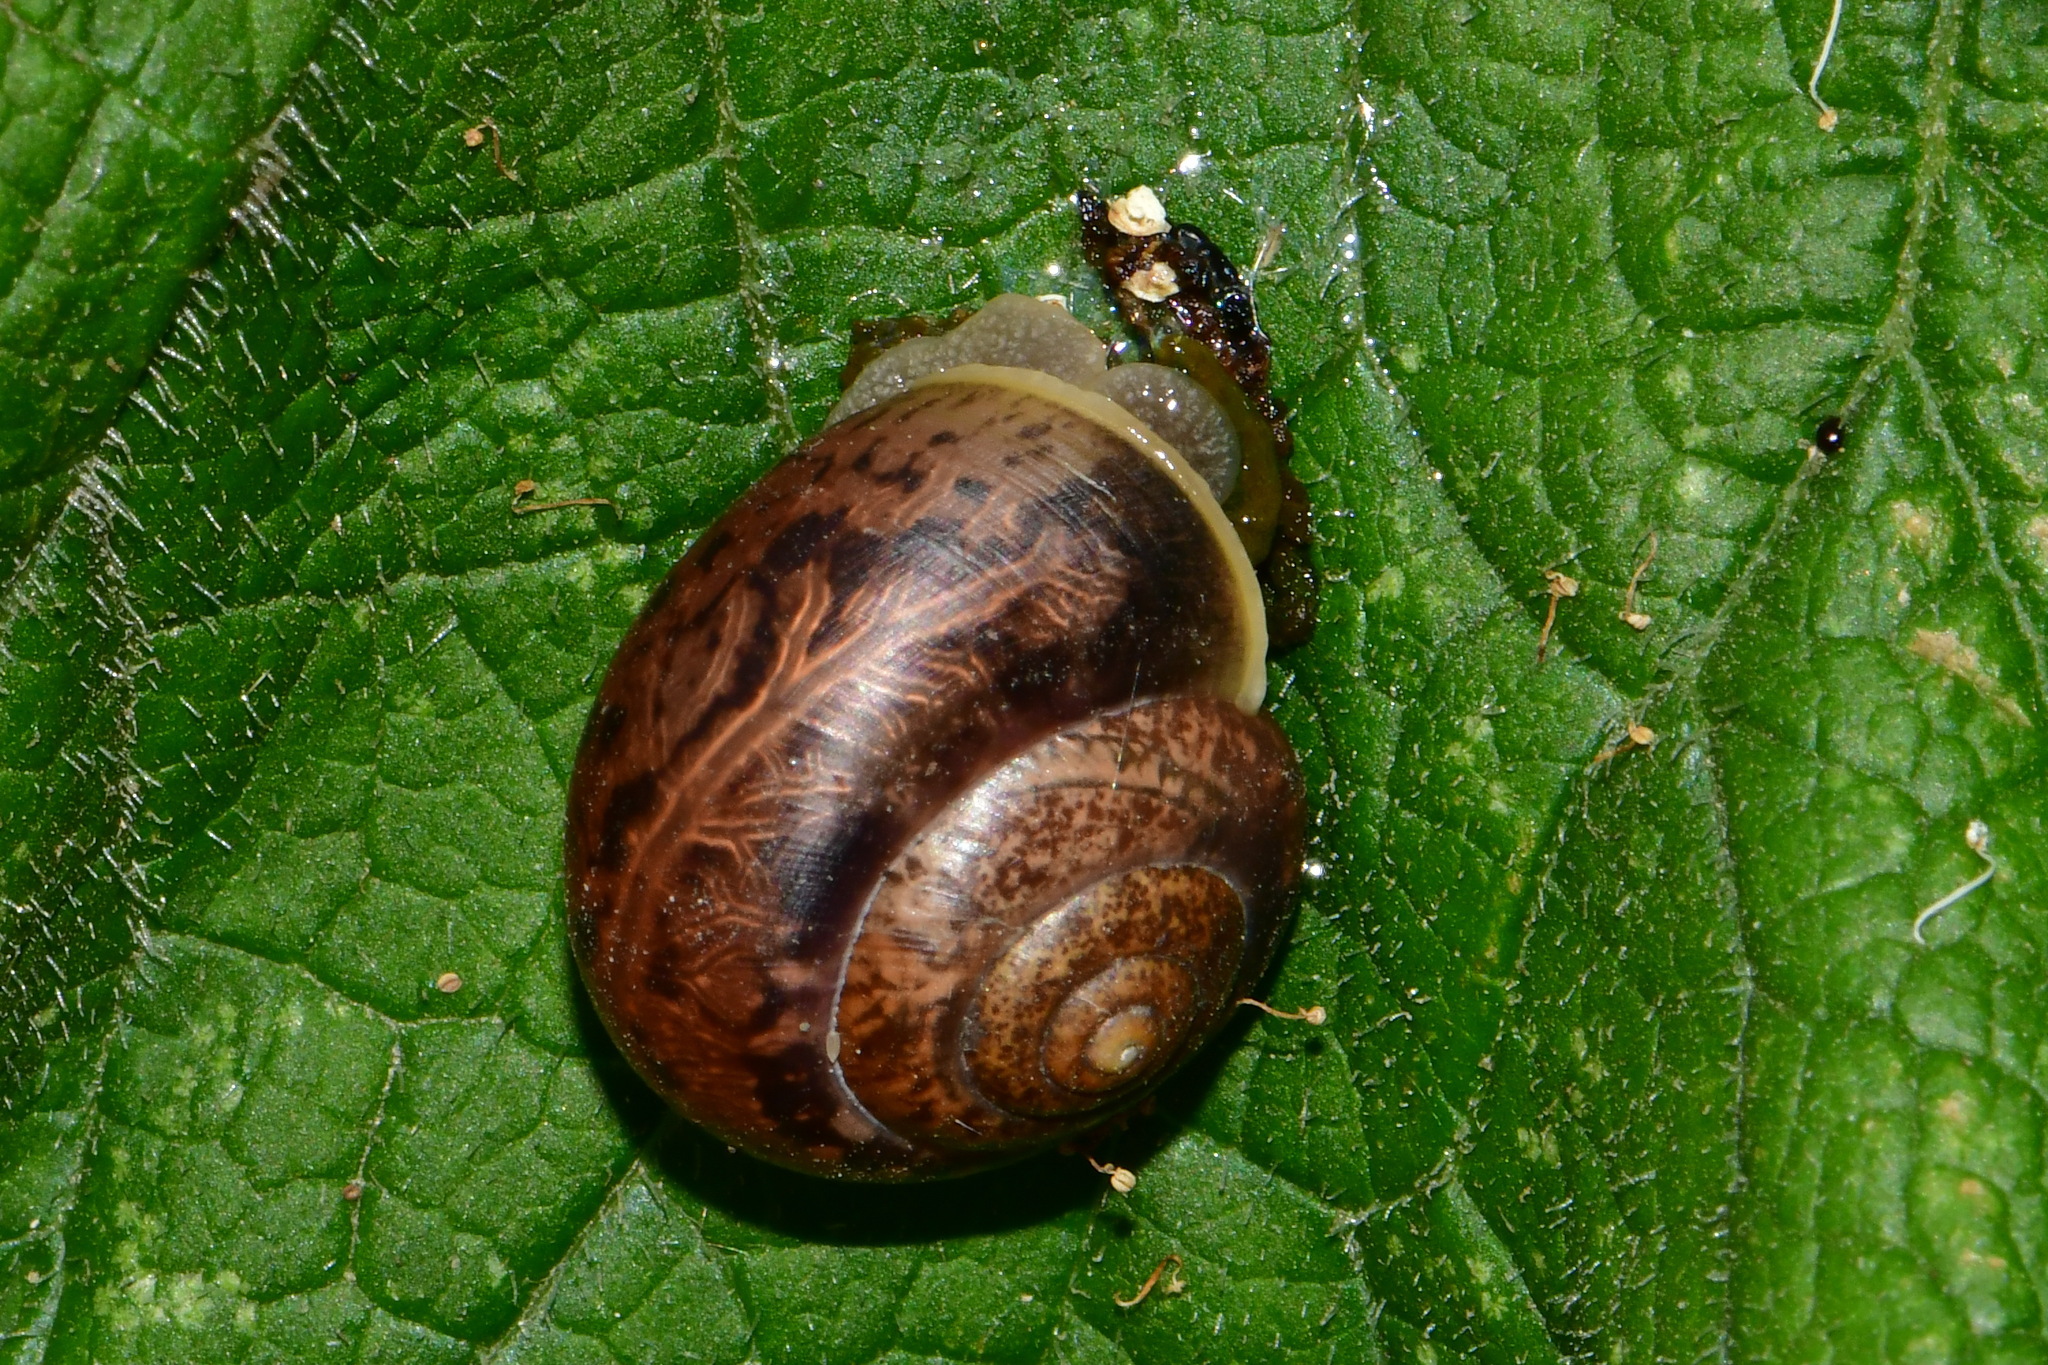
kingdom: Animalia
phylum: Mollusca
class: Gastropoda
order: Stylommatophora
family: Camaenidae
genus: Fruticicola
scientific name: Fruticicola fruticum
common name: Bush snail
